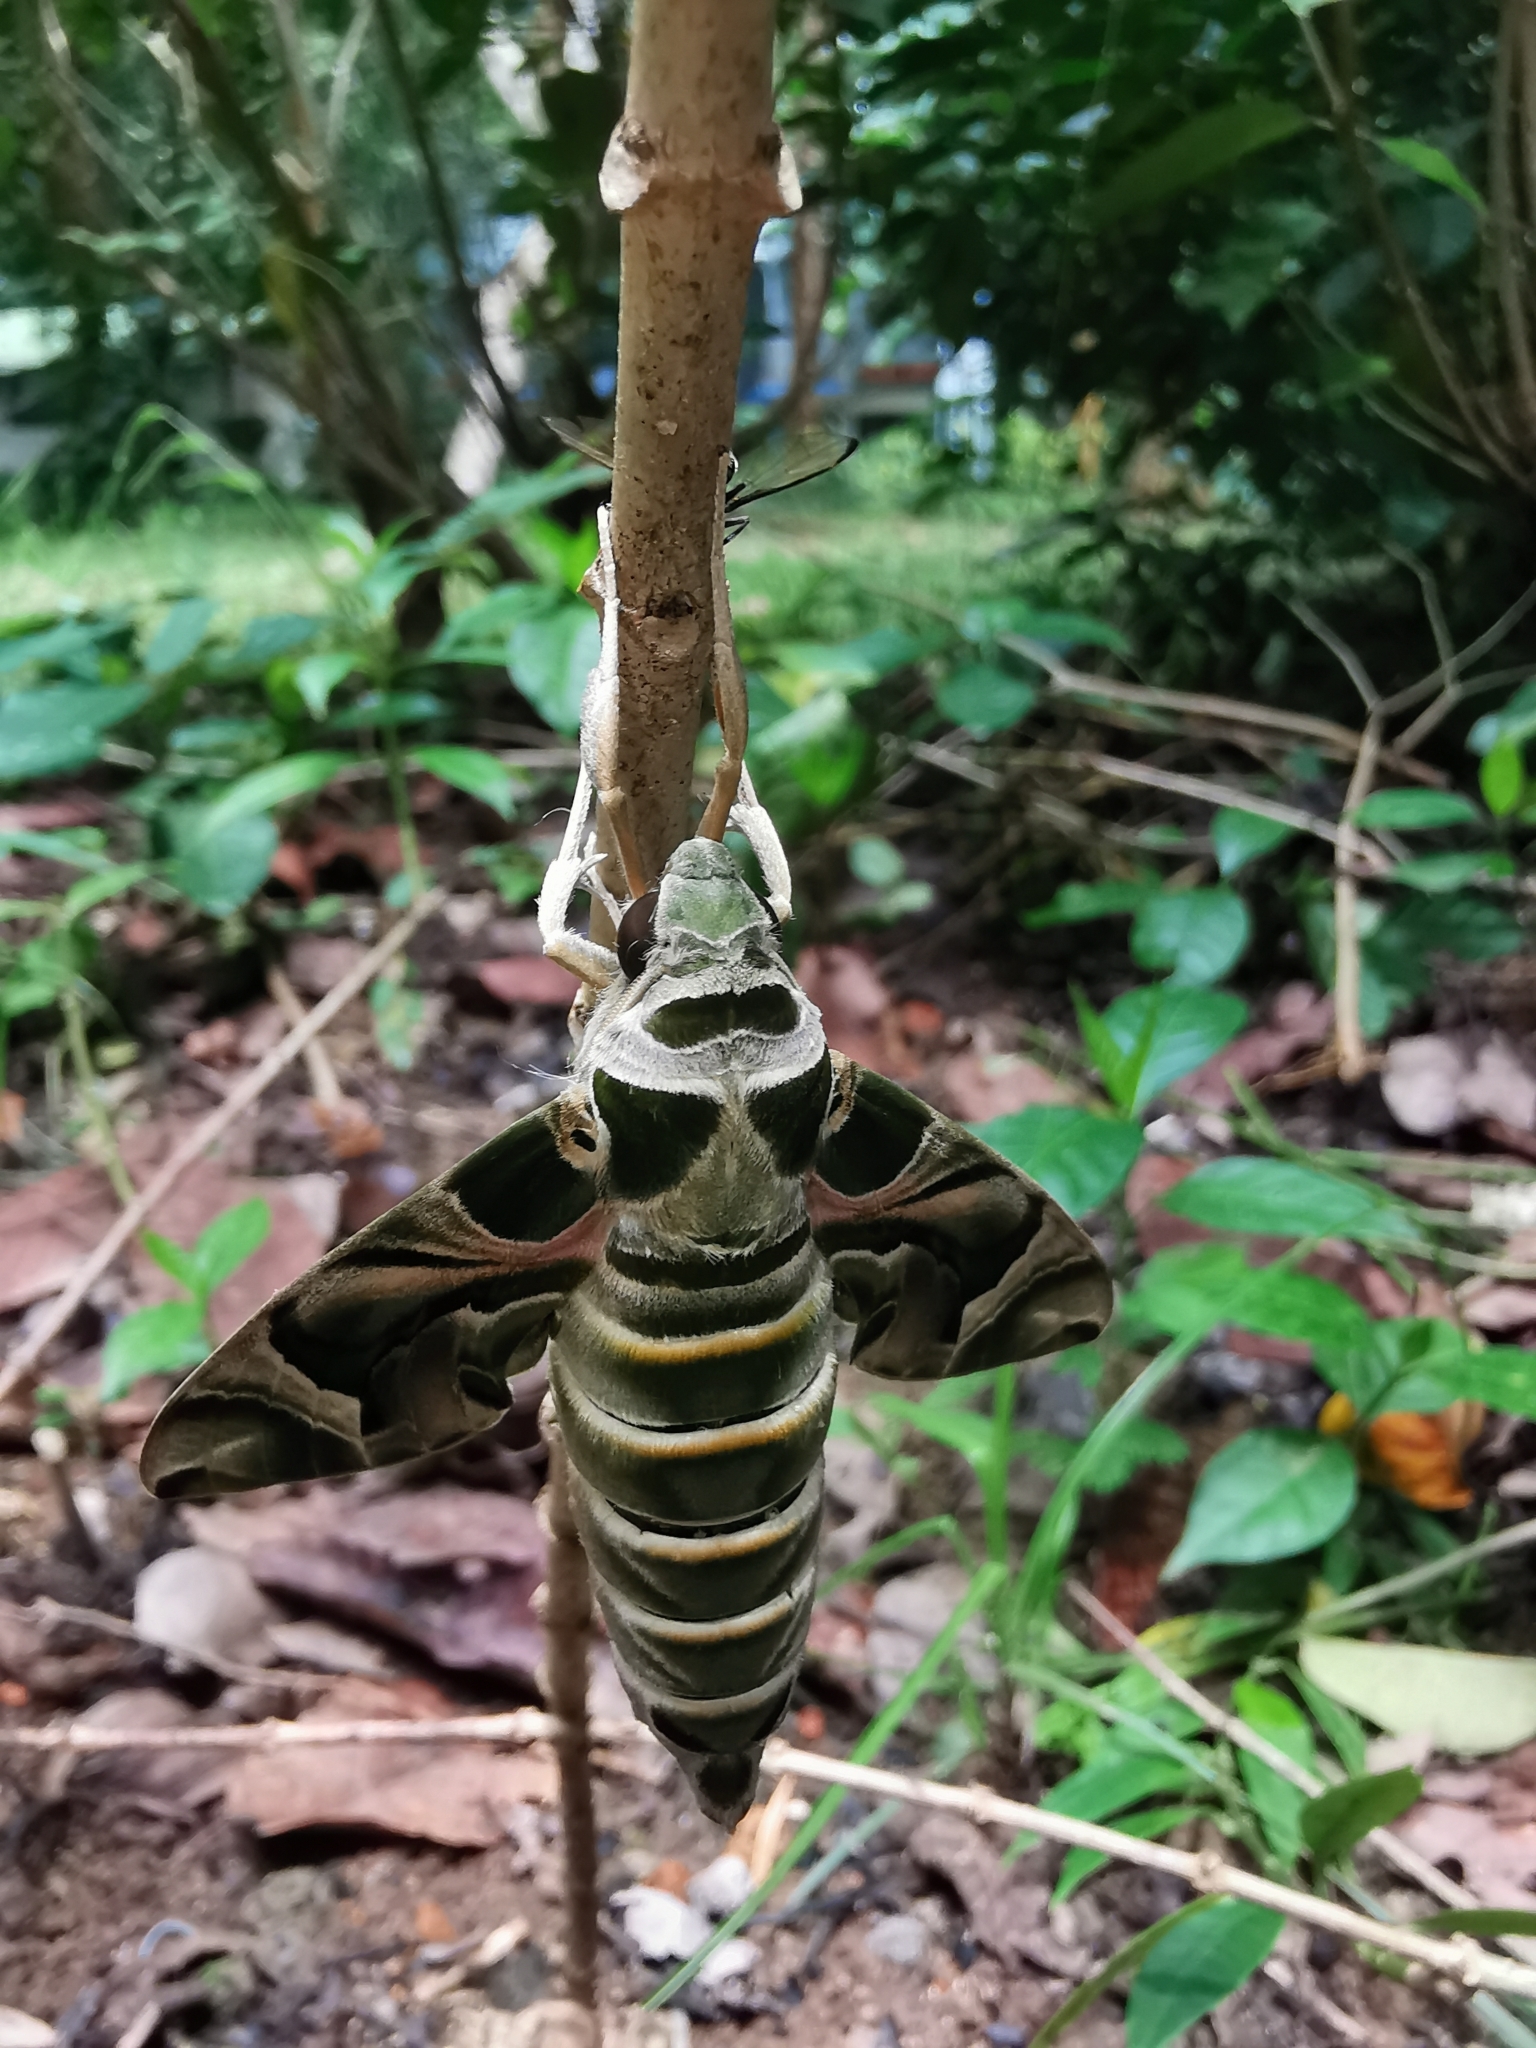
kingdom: Animalia
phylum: Arthropoda
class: Insecta
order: Lepidoptera
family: Sphingidae
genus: Daphnis
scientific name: Daphnis nerii
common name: Oleander hawk-moth
